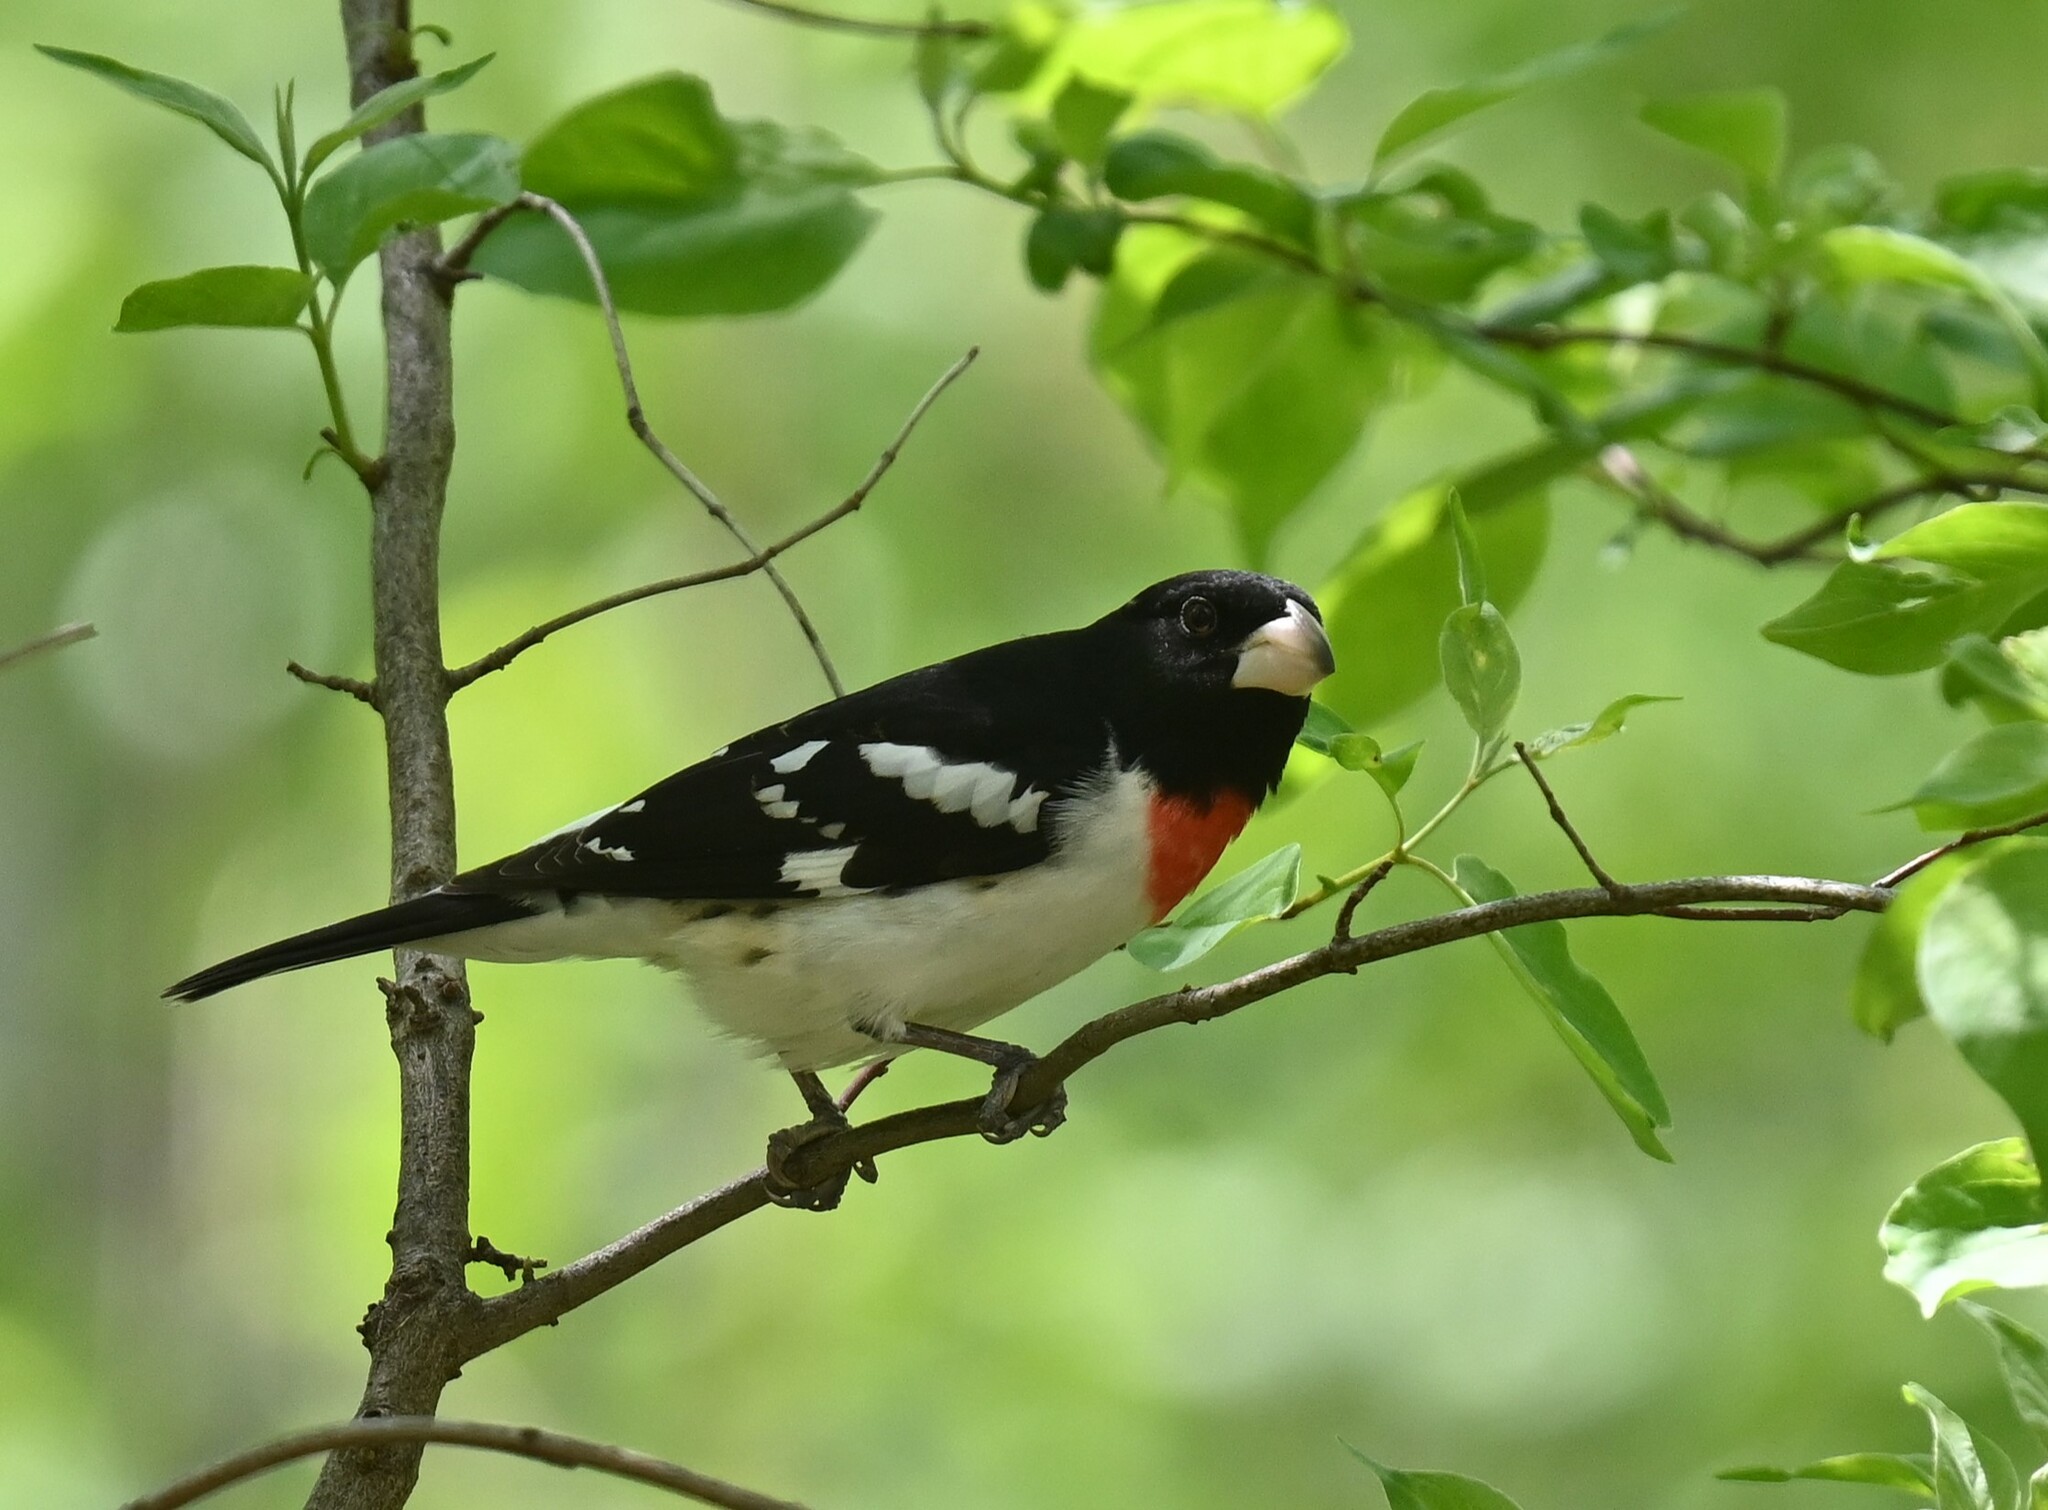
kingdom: Animalia
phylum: Chordata
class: Aves
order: Passeriformes
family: Cardinalidae
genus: Pheucticus
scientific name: Pheucticus ludovicianus
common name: Rose-breasted grosbeak
